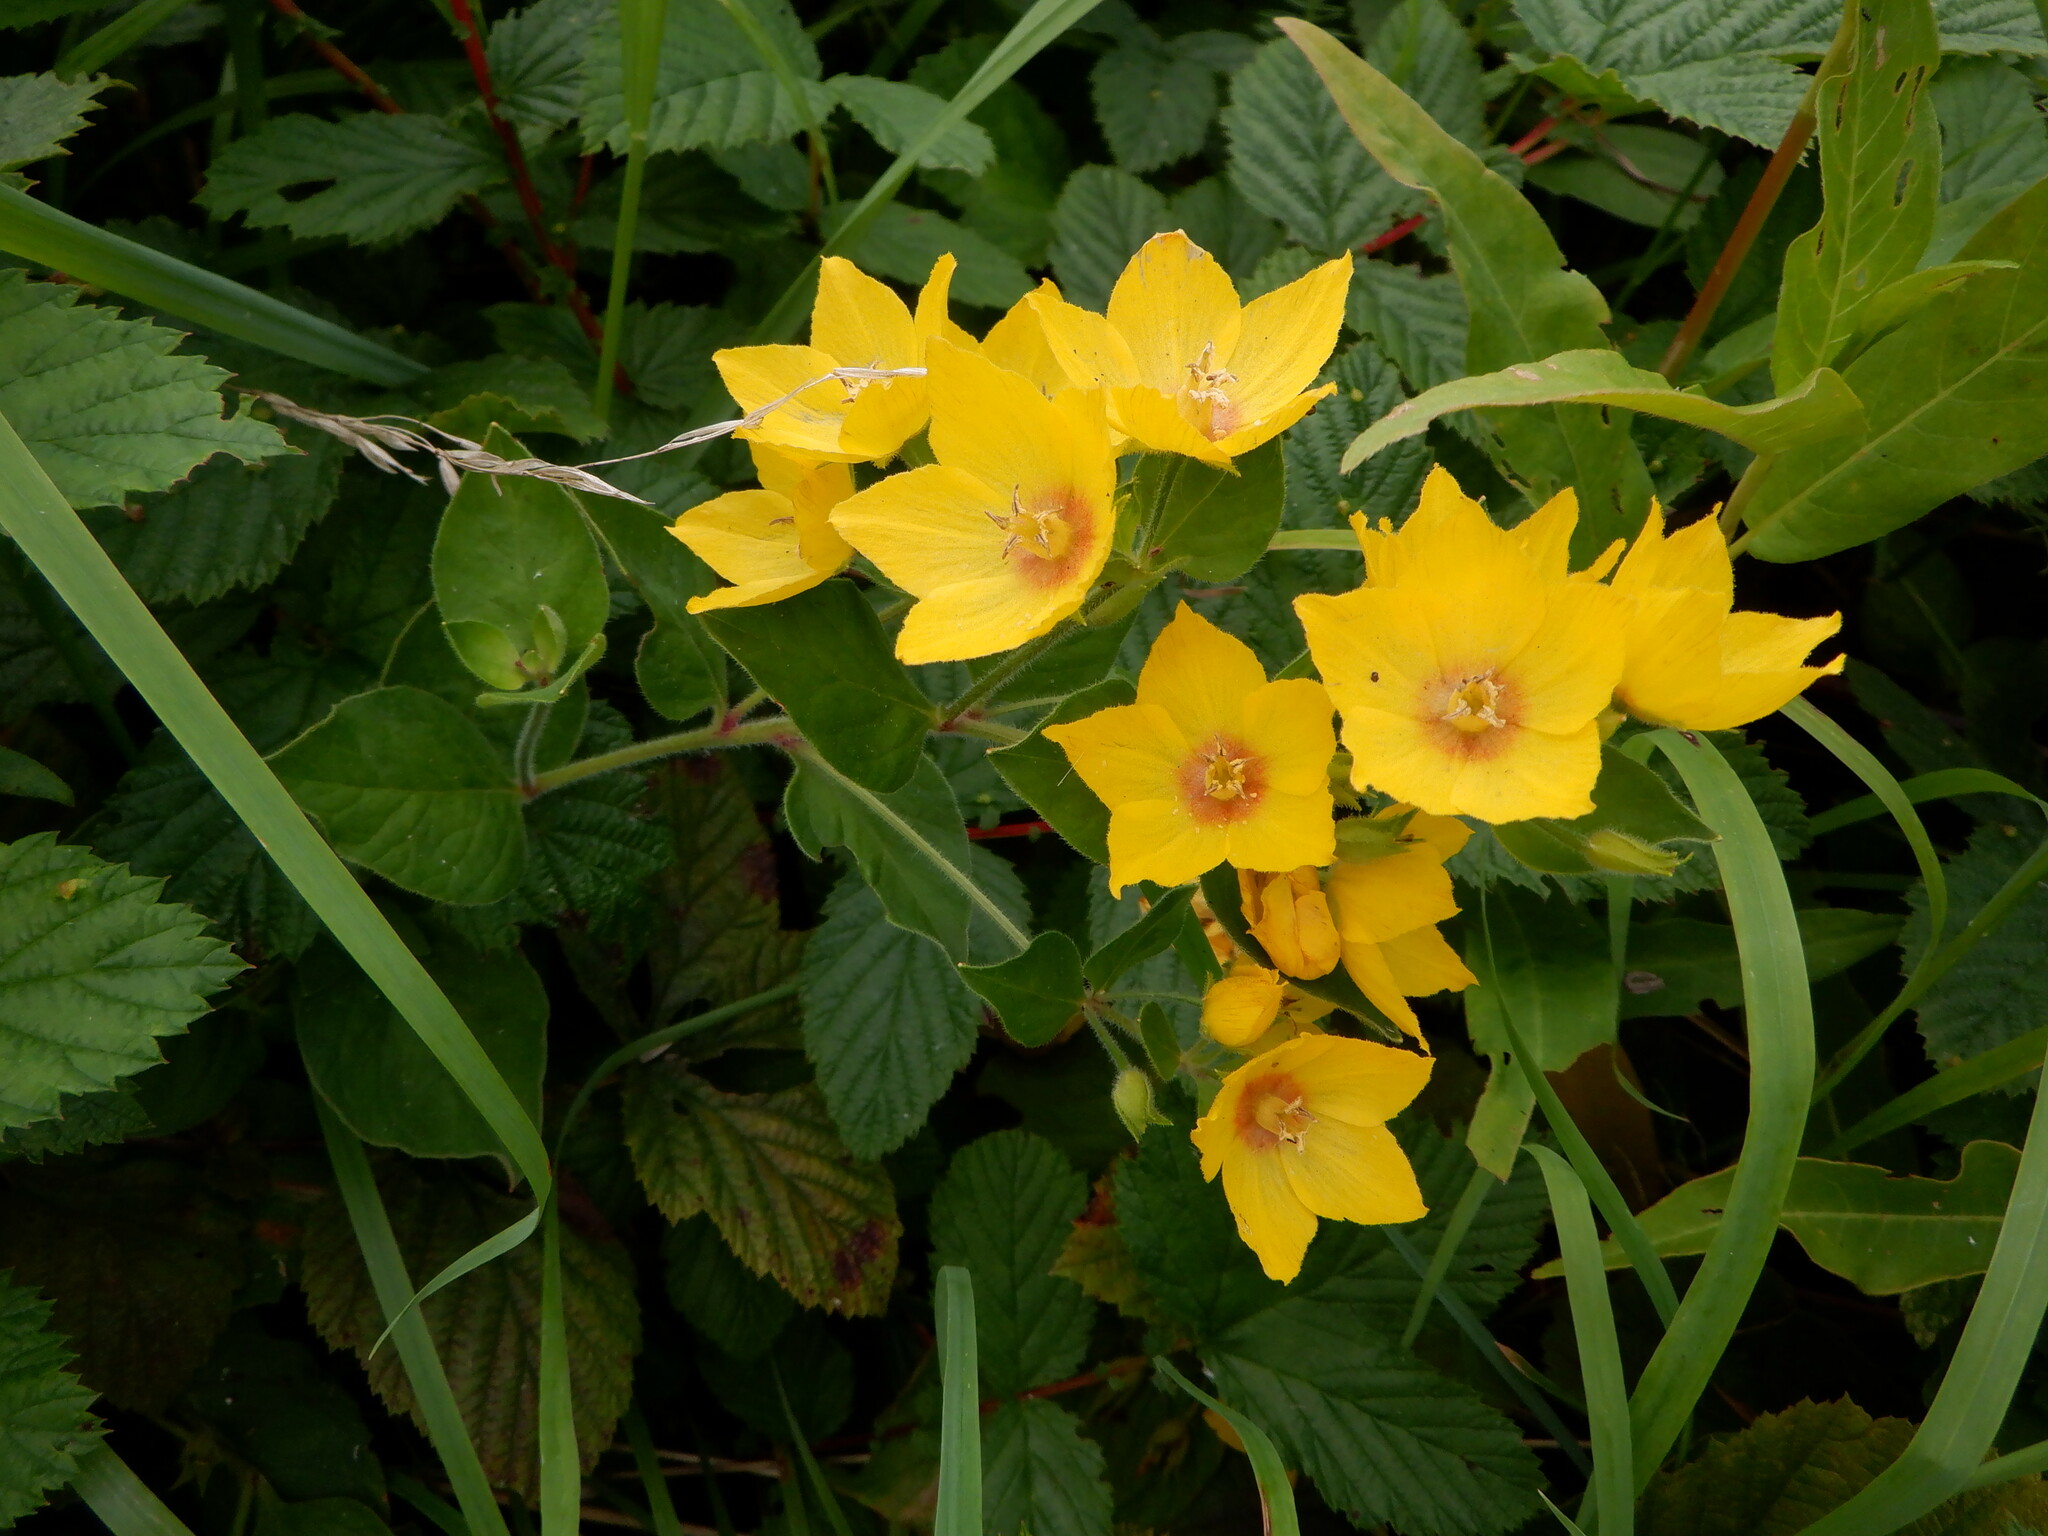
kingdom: Plantae
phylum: Tracheophyta
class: Magnoliopsida
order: Ericales
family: Primulaceae
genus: Lysimachia
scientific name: Lysimachia punctata
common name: Dotted loosestrife
